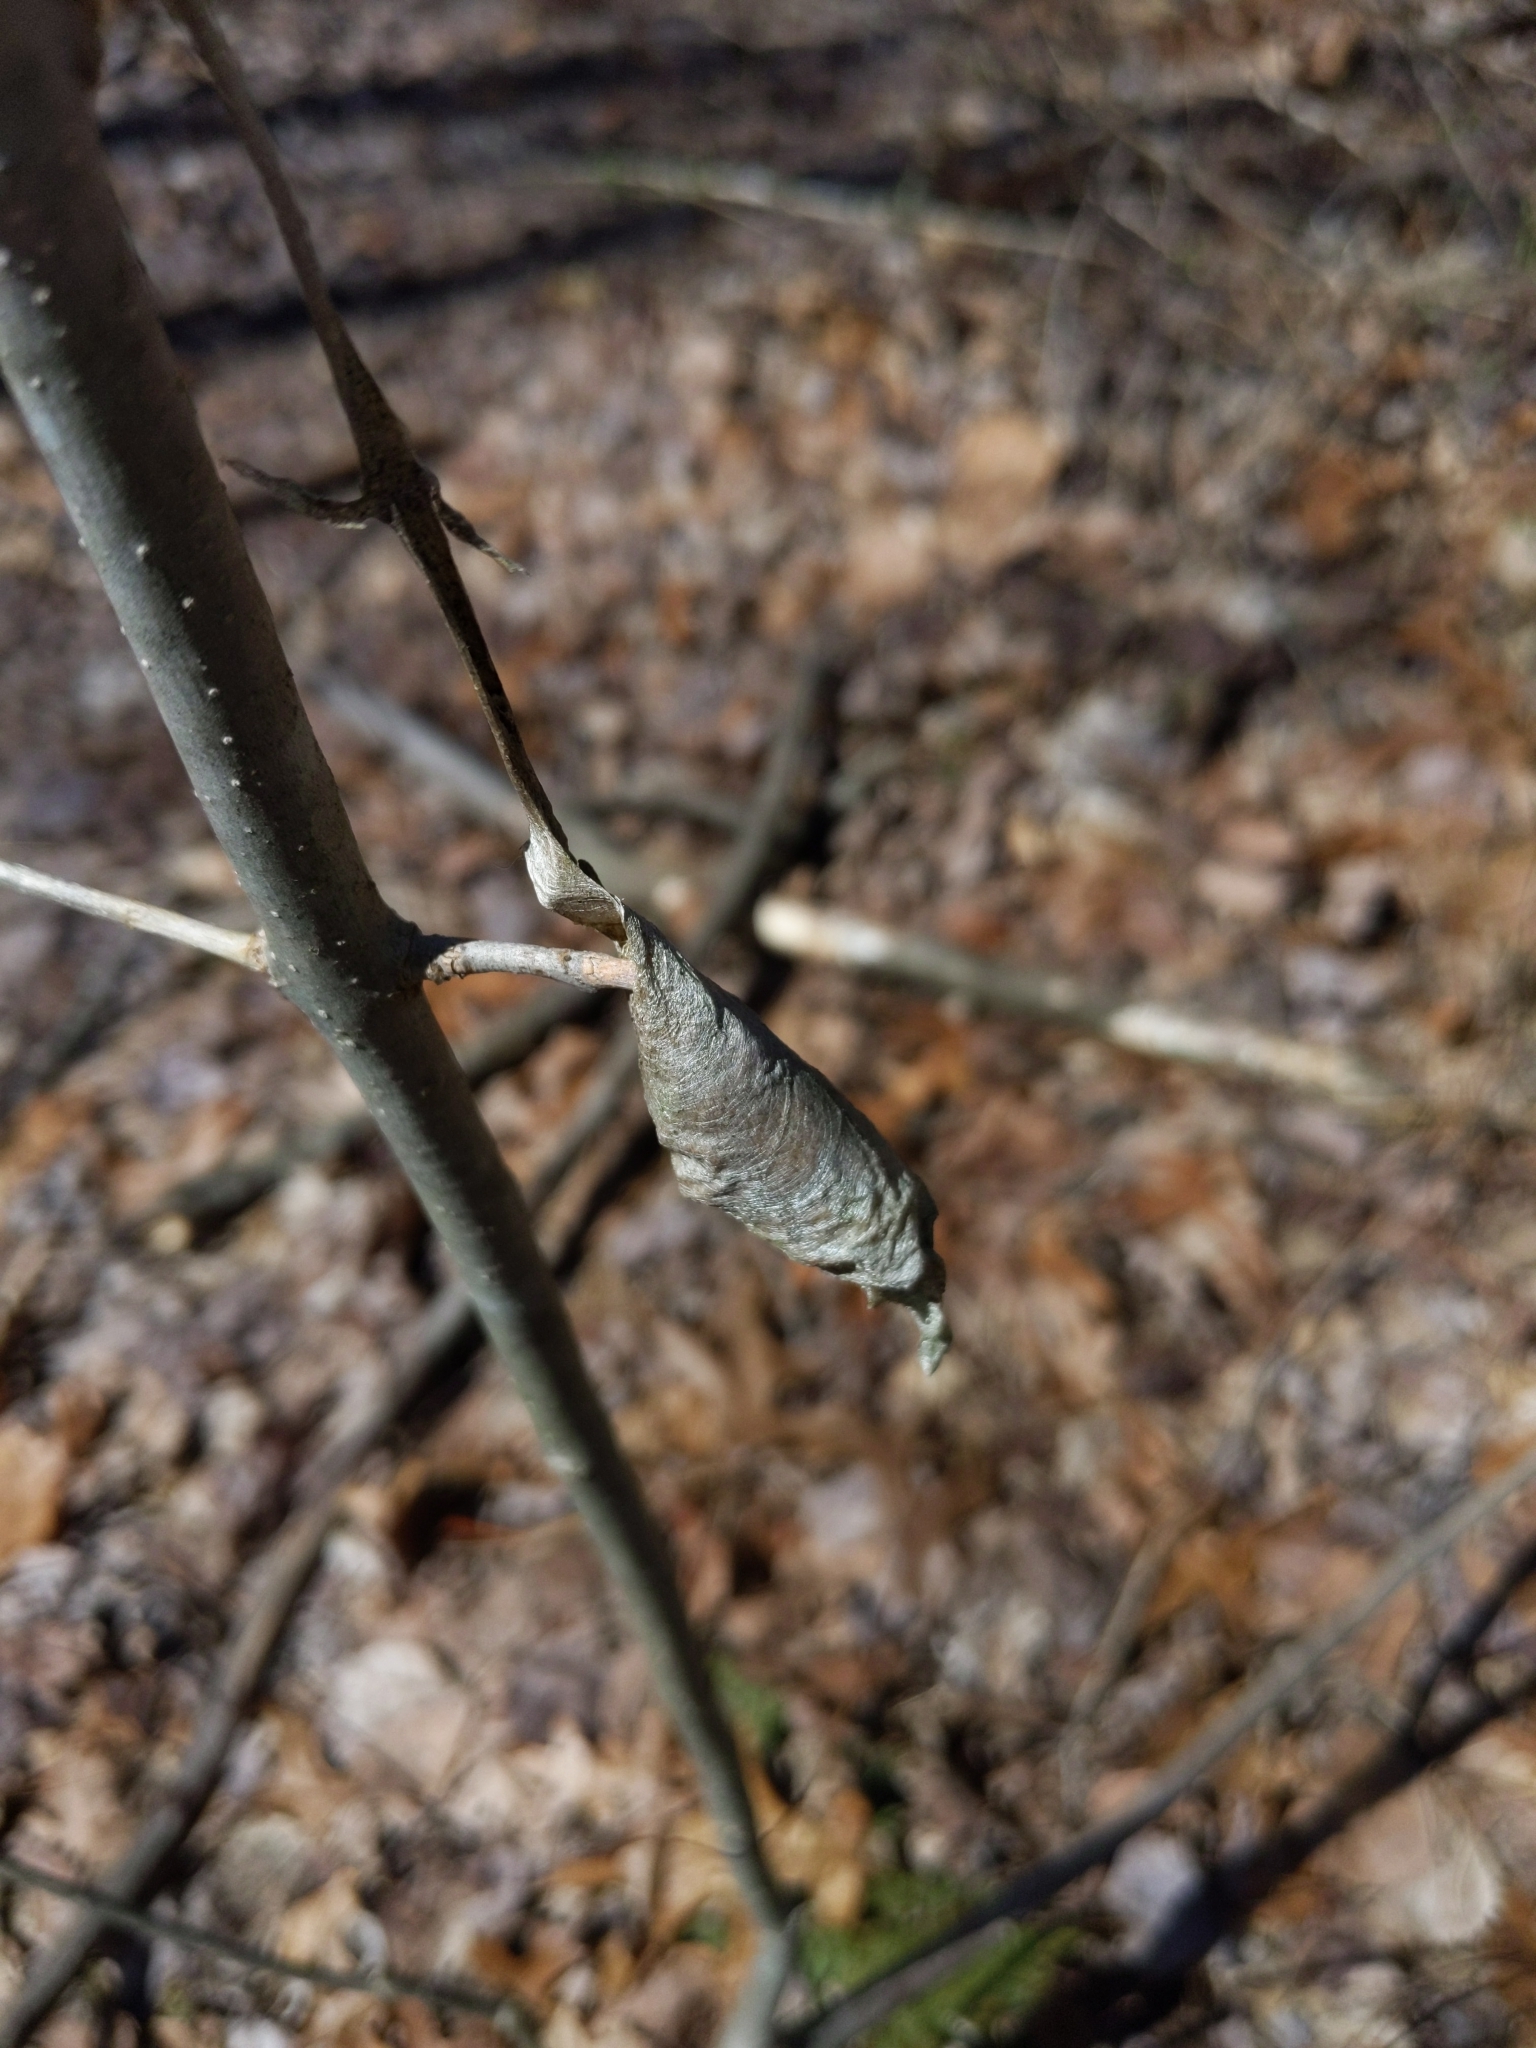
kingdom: Animalia
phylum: Arthropoda
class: Insecta
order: Lepidoptera
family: Saturniidae
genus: Callosamia
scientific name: Callosamia promethea
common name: Promethea silkmoth
